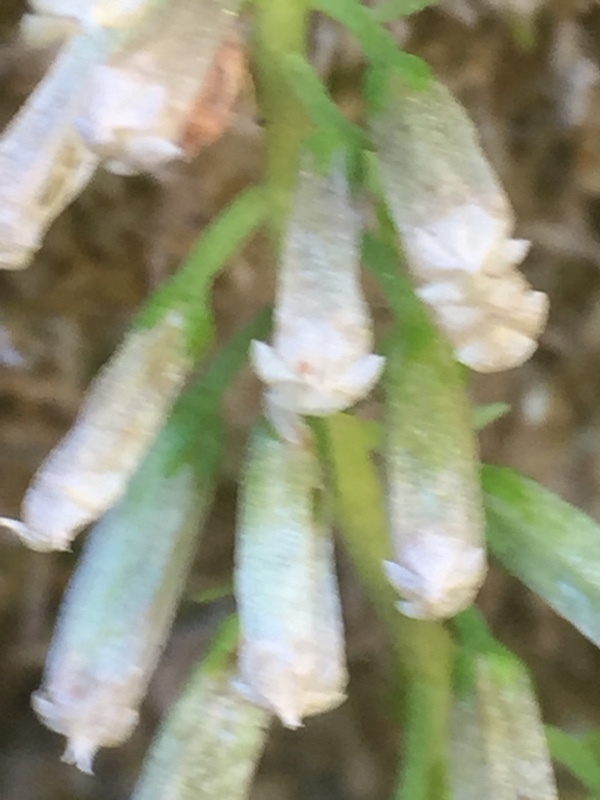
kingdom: Plantae
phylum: Tracheophyta
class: Magnoliopsida
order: Saxifragales
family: Crassulaceae
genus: Umbilicus
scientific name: Umbilicus rupestris
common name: Navelwort
